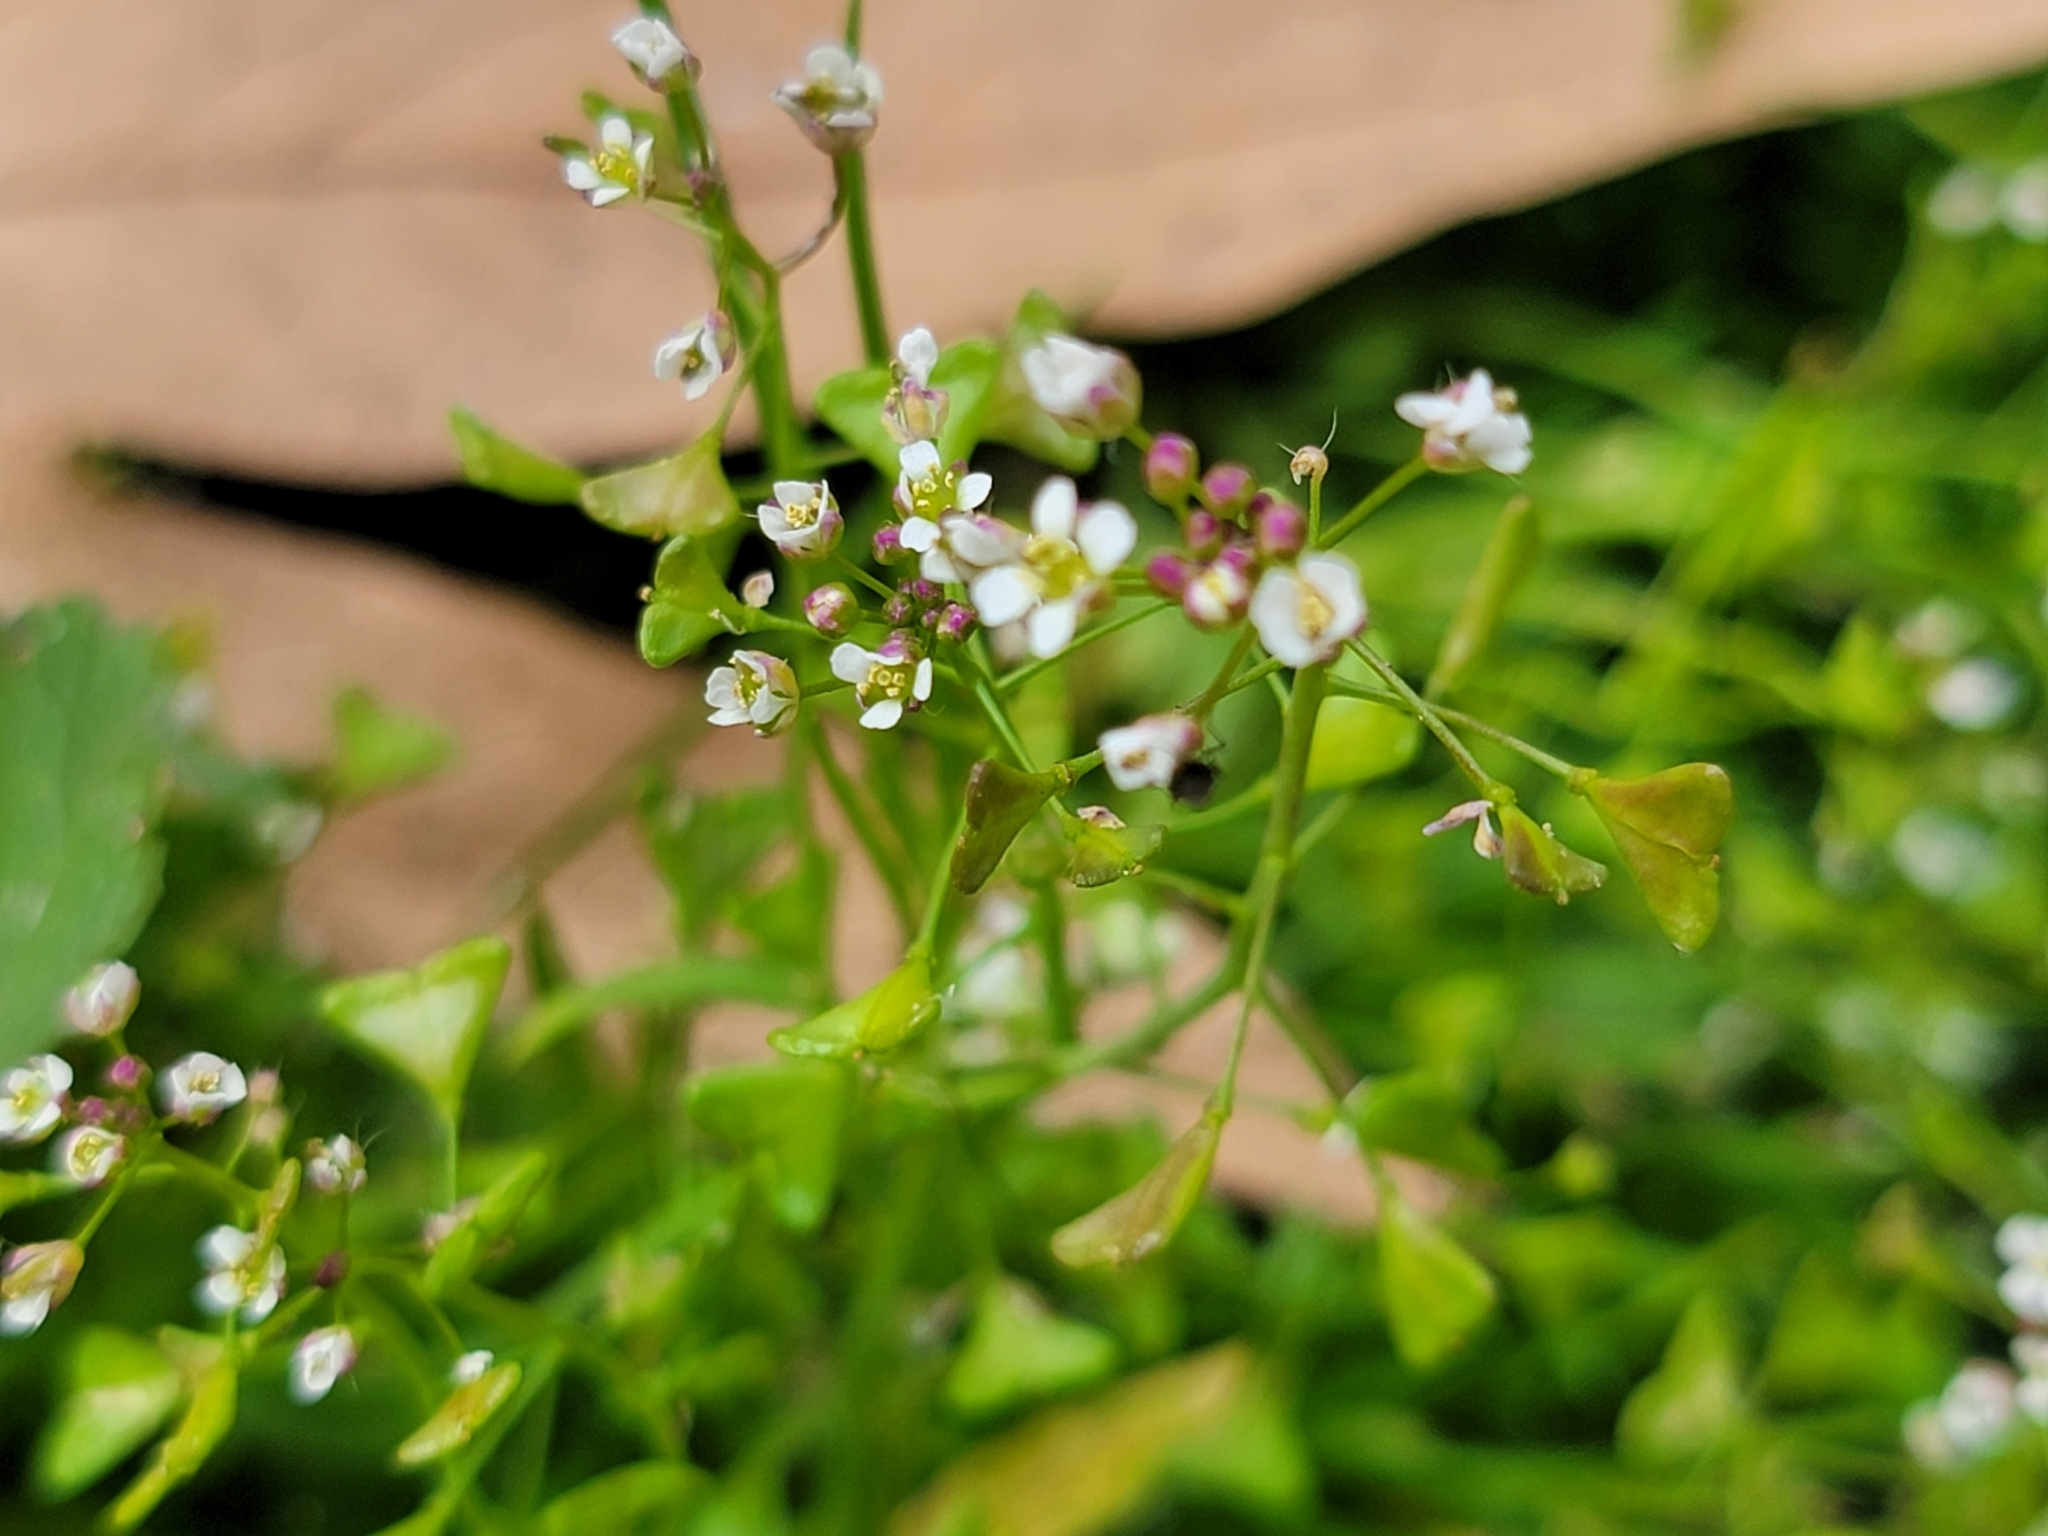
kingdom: Plantae
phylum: Tracheophyta
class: Magnoliopsida
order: Brassicales
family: Brassicaceae
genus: Capsella
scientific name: Capsella bursa-pastoris
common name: Shepherd's purse
